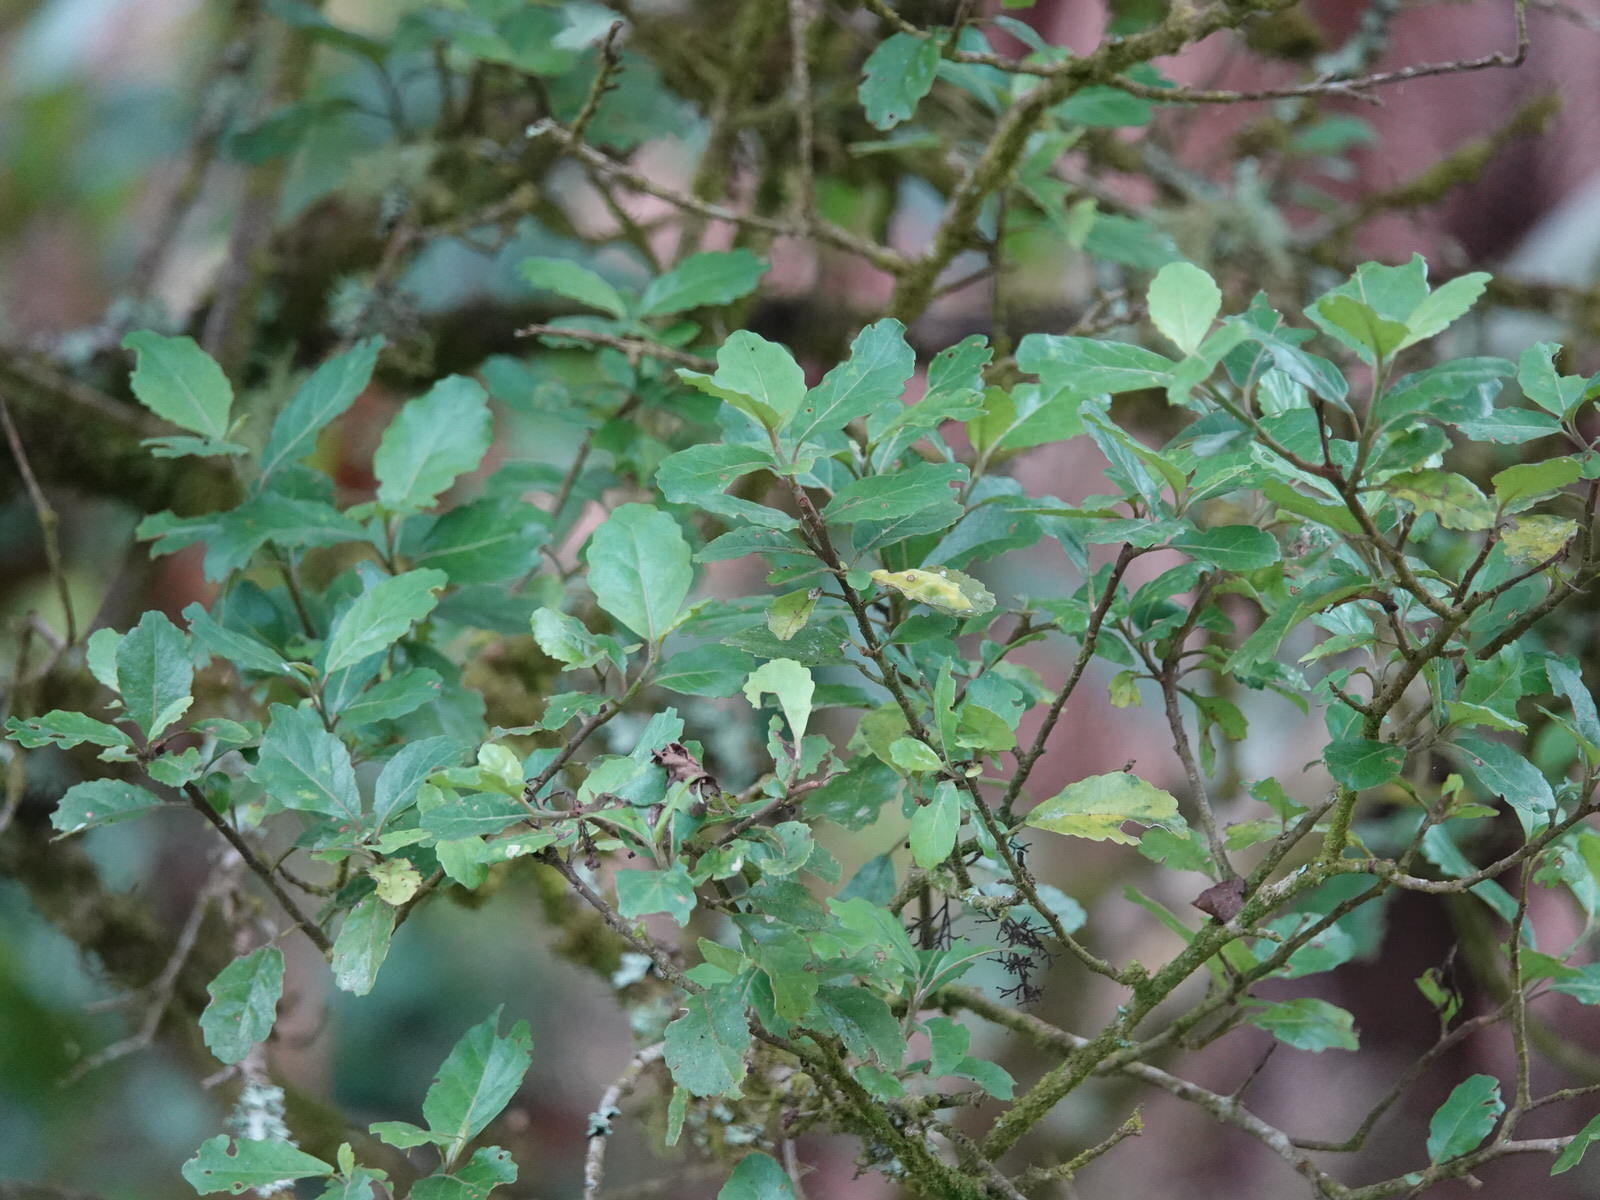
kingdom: Plantae
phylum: Tracheophyta
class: Magnoliopsida
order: Apiales
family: Pennantiaceae
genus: Pennantia
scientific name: Pennantia corymbosa
